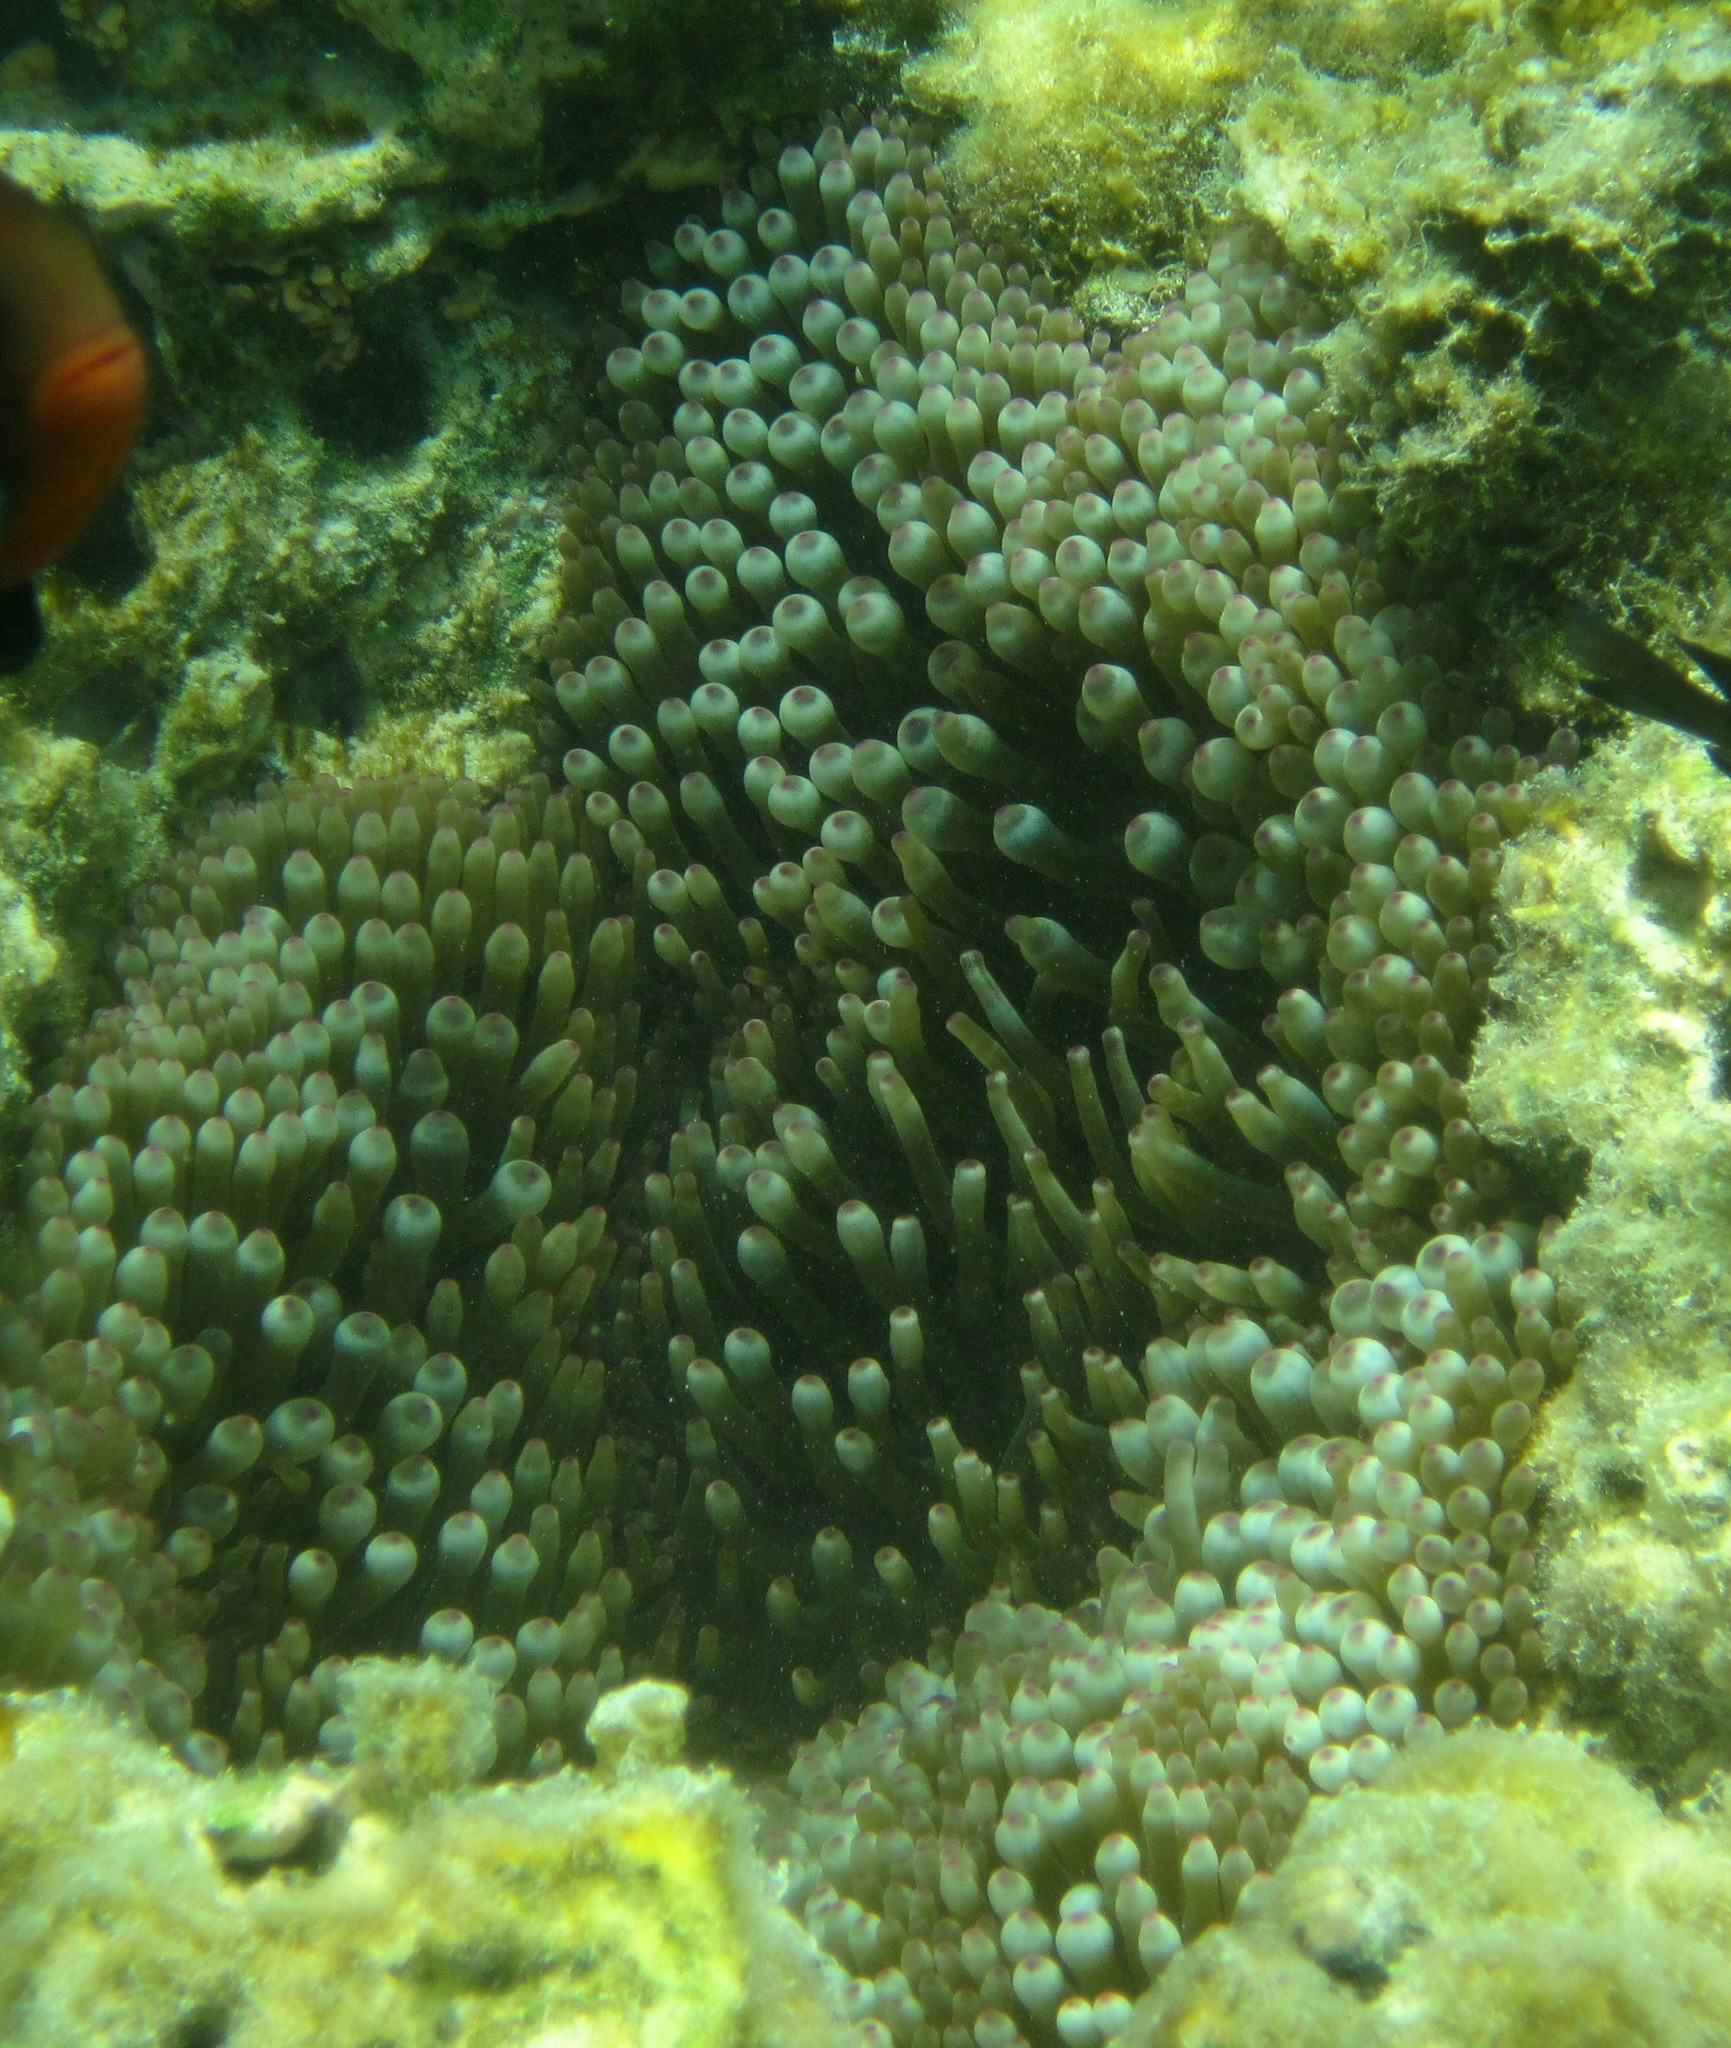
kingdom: Animalia
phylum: Cnidaria
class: Anthozoa
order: Actiniaria
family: Actiniidae
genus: Entacmaea
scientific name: Entacmaea quadricolor
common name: Bulb tentacle sea anemone
